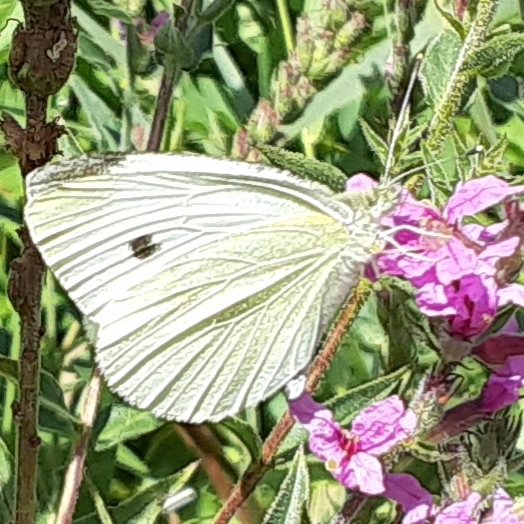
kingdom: Animalia
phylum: Arthropoda
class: Insecta
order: Lepidoptera
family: Pieridae
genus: Pieris
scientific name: Pieris rapae
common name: Small white
